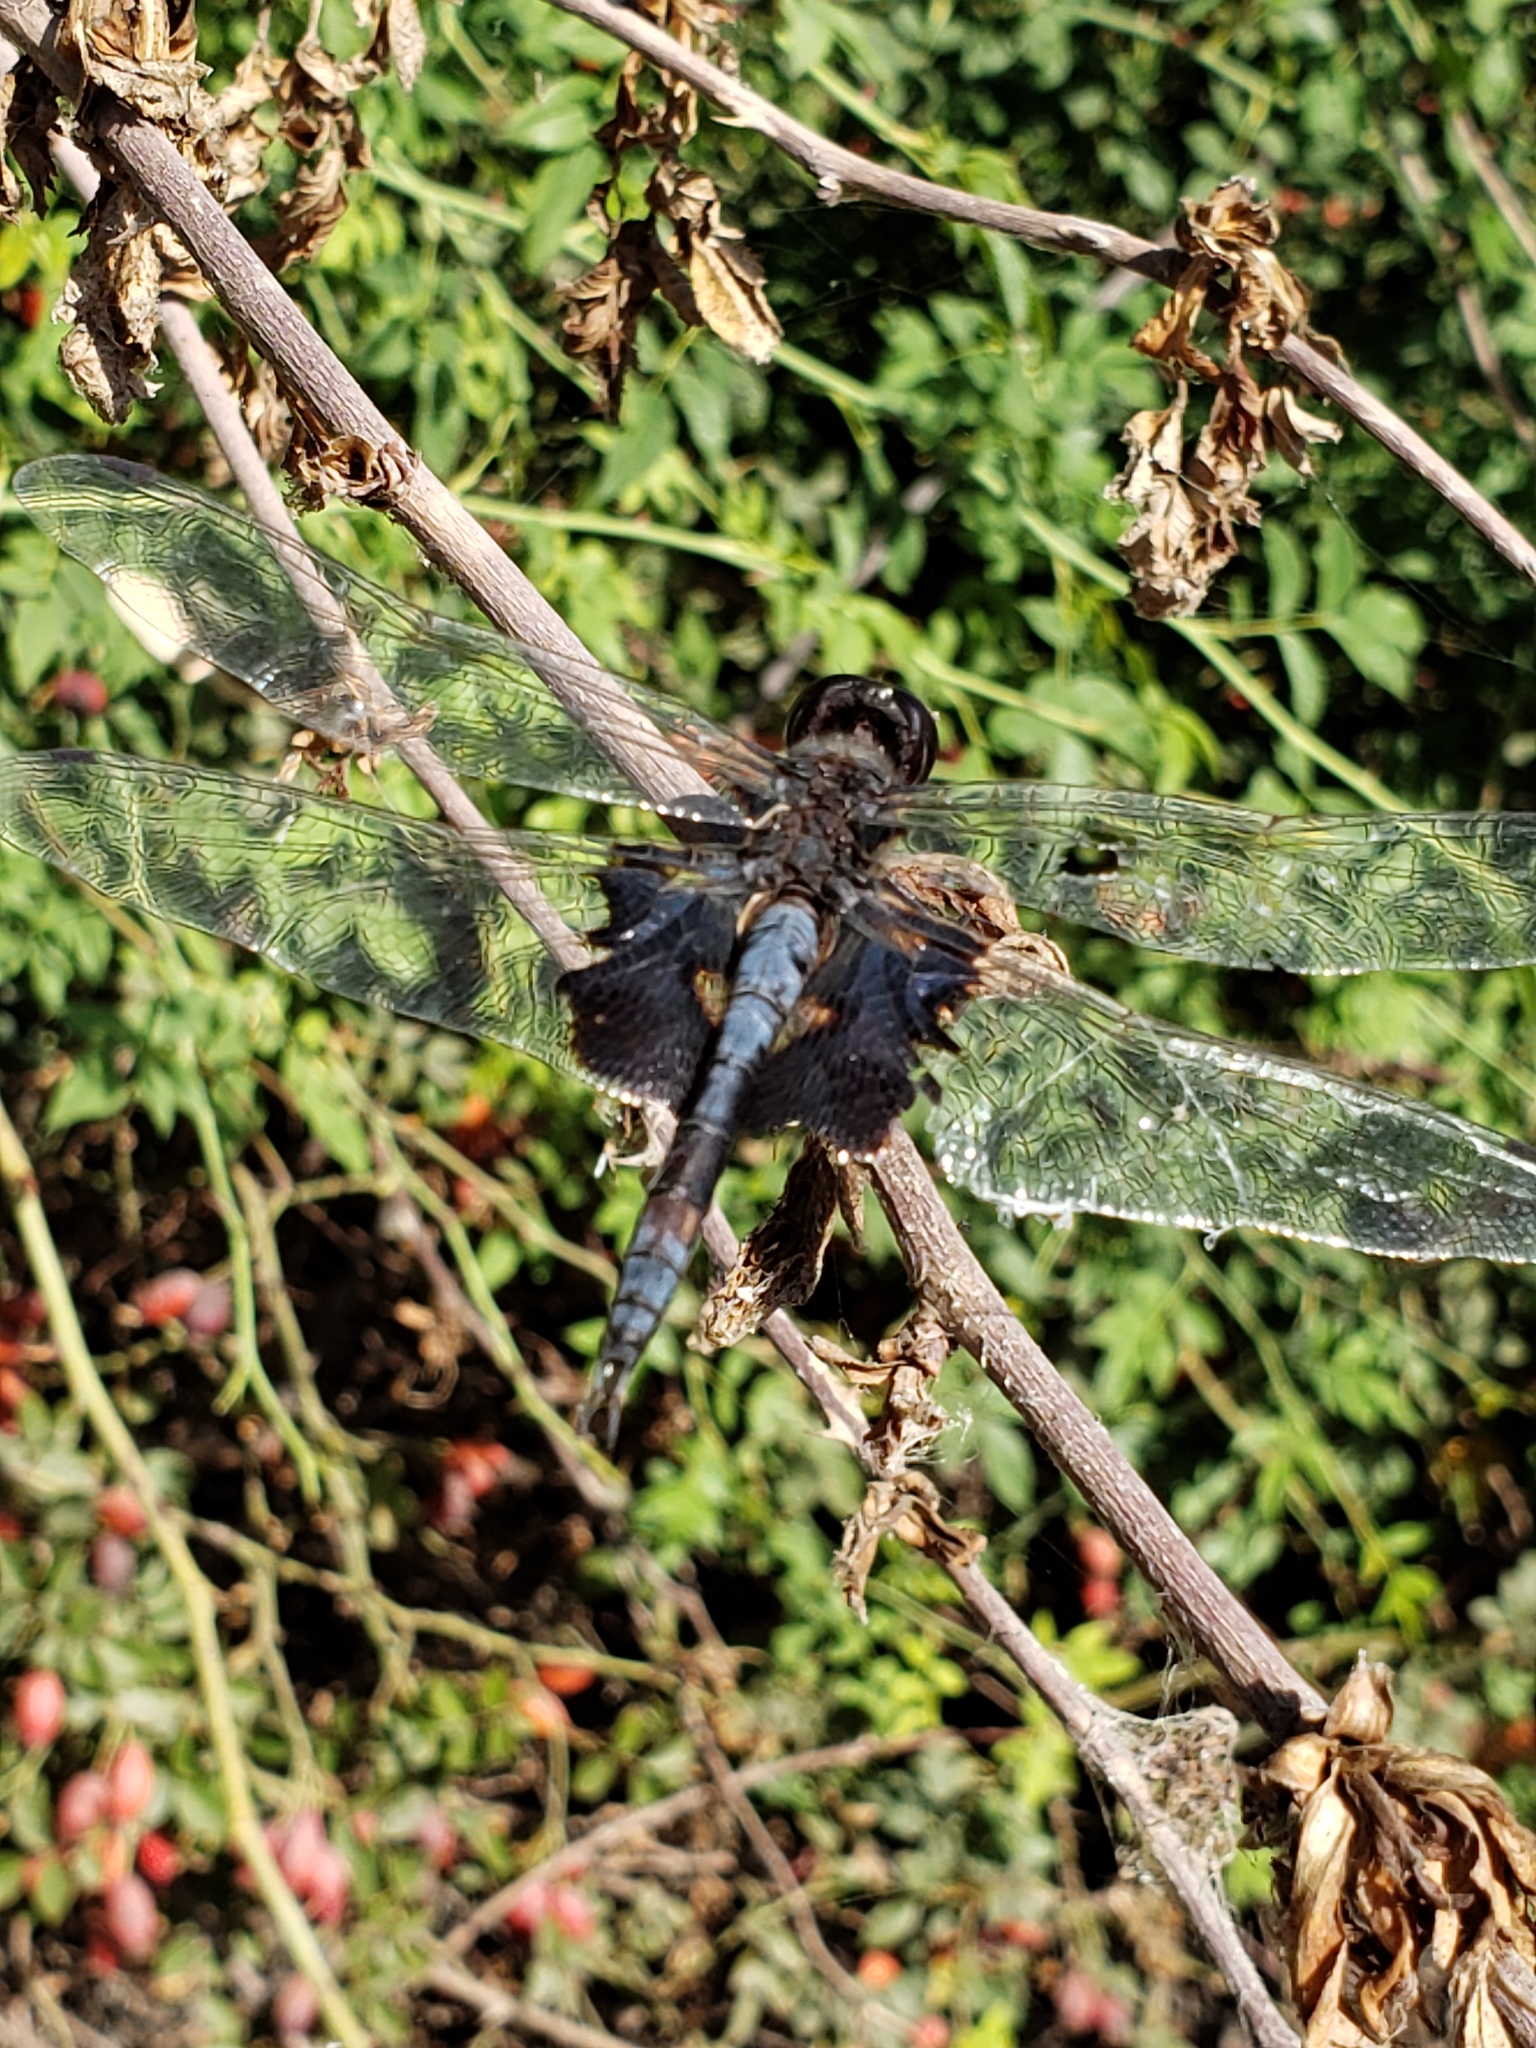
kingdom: Animalia
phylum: Arthropoda
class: Insecta
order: Odonata
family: Libellulidae
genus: Tramea
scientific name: Tramea lacerata
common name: Black saddlebags
